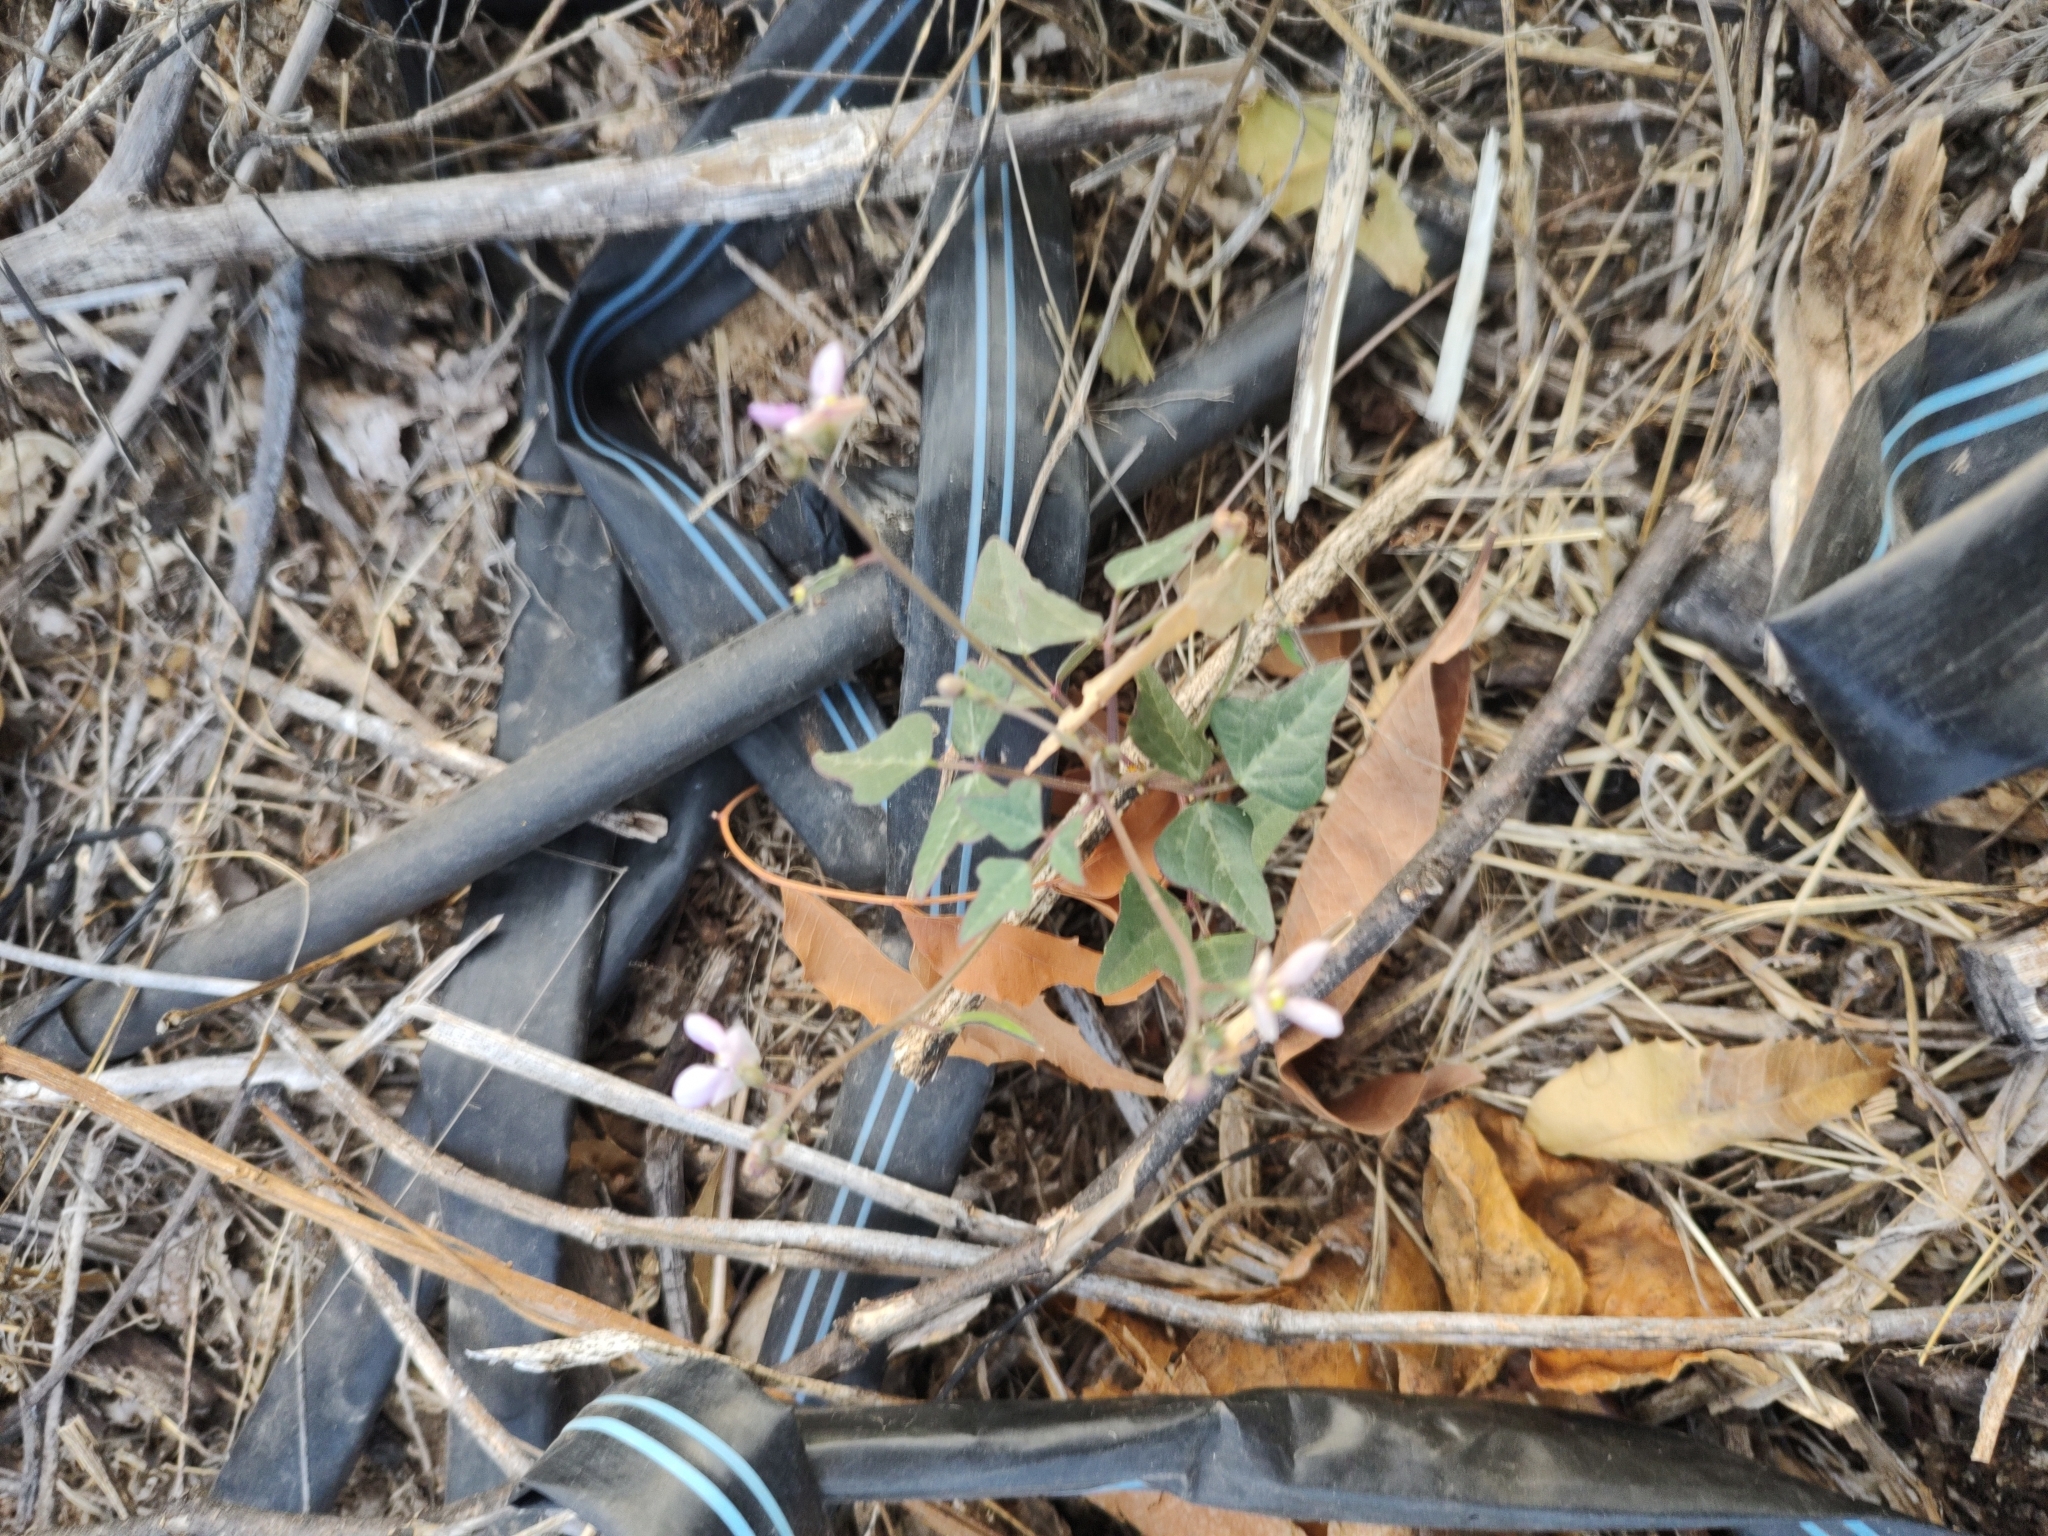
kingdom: Plantae
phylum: Tracheophyta
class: Magnoliopsida
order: Fabales
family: Fabaceae
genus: Phaseolus
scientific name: Phaseolus filiformis
